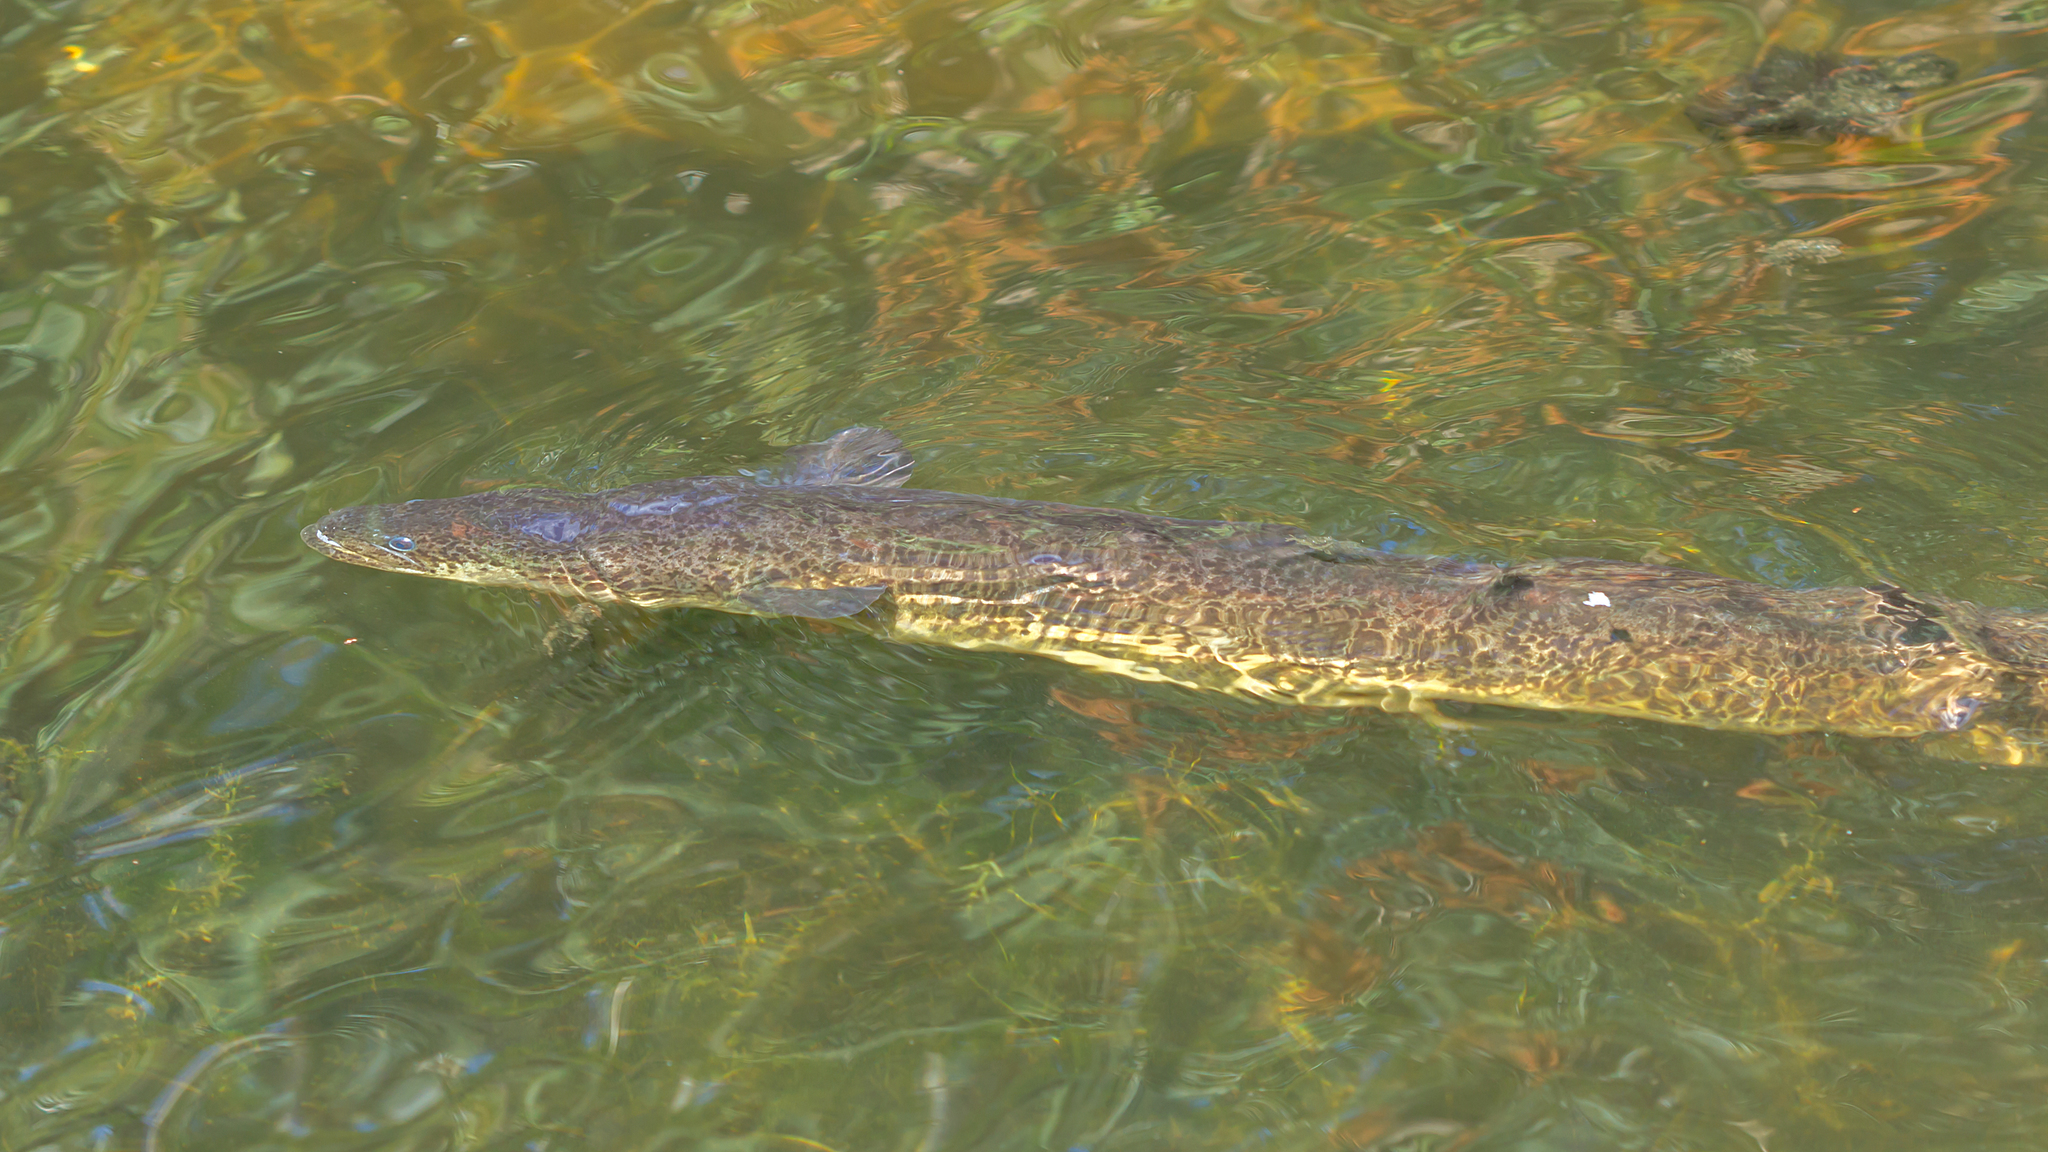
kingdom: Animalia
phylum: Chordata
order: Anguilliformes
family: Anguillidae
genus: Anguilla
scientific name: Anguilla reinhardtii
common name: Longfin eel
